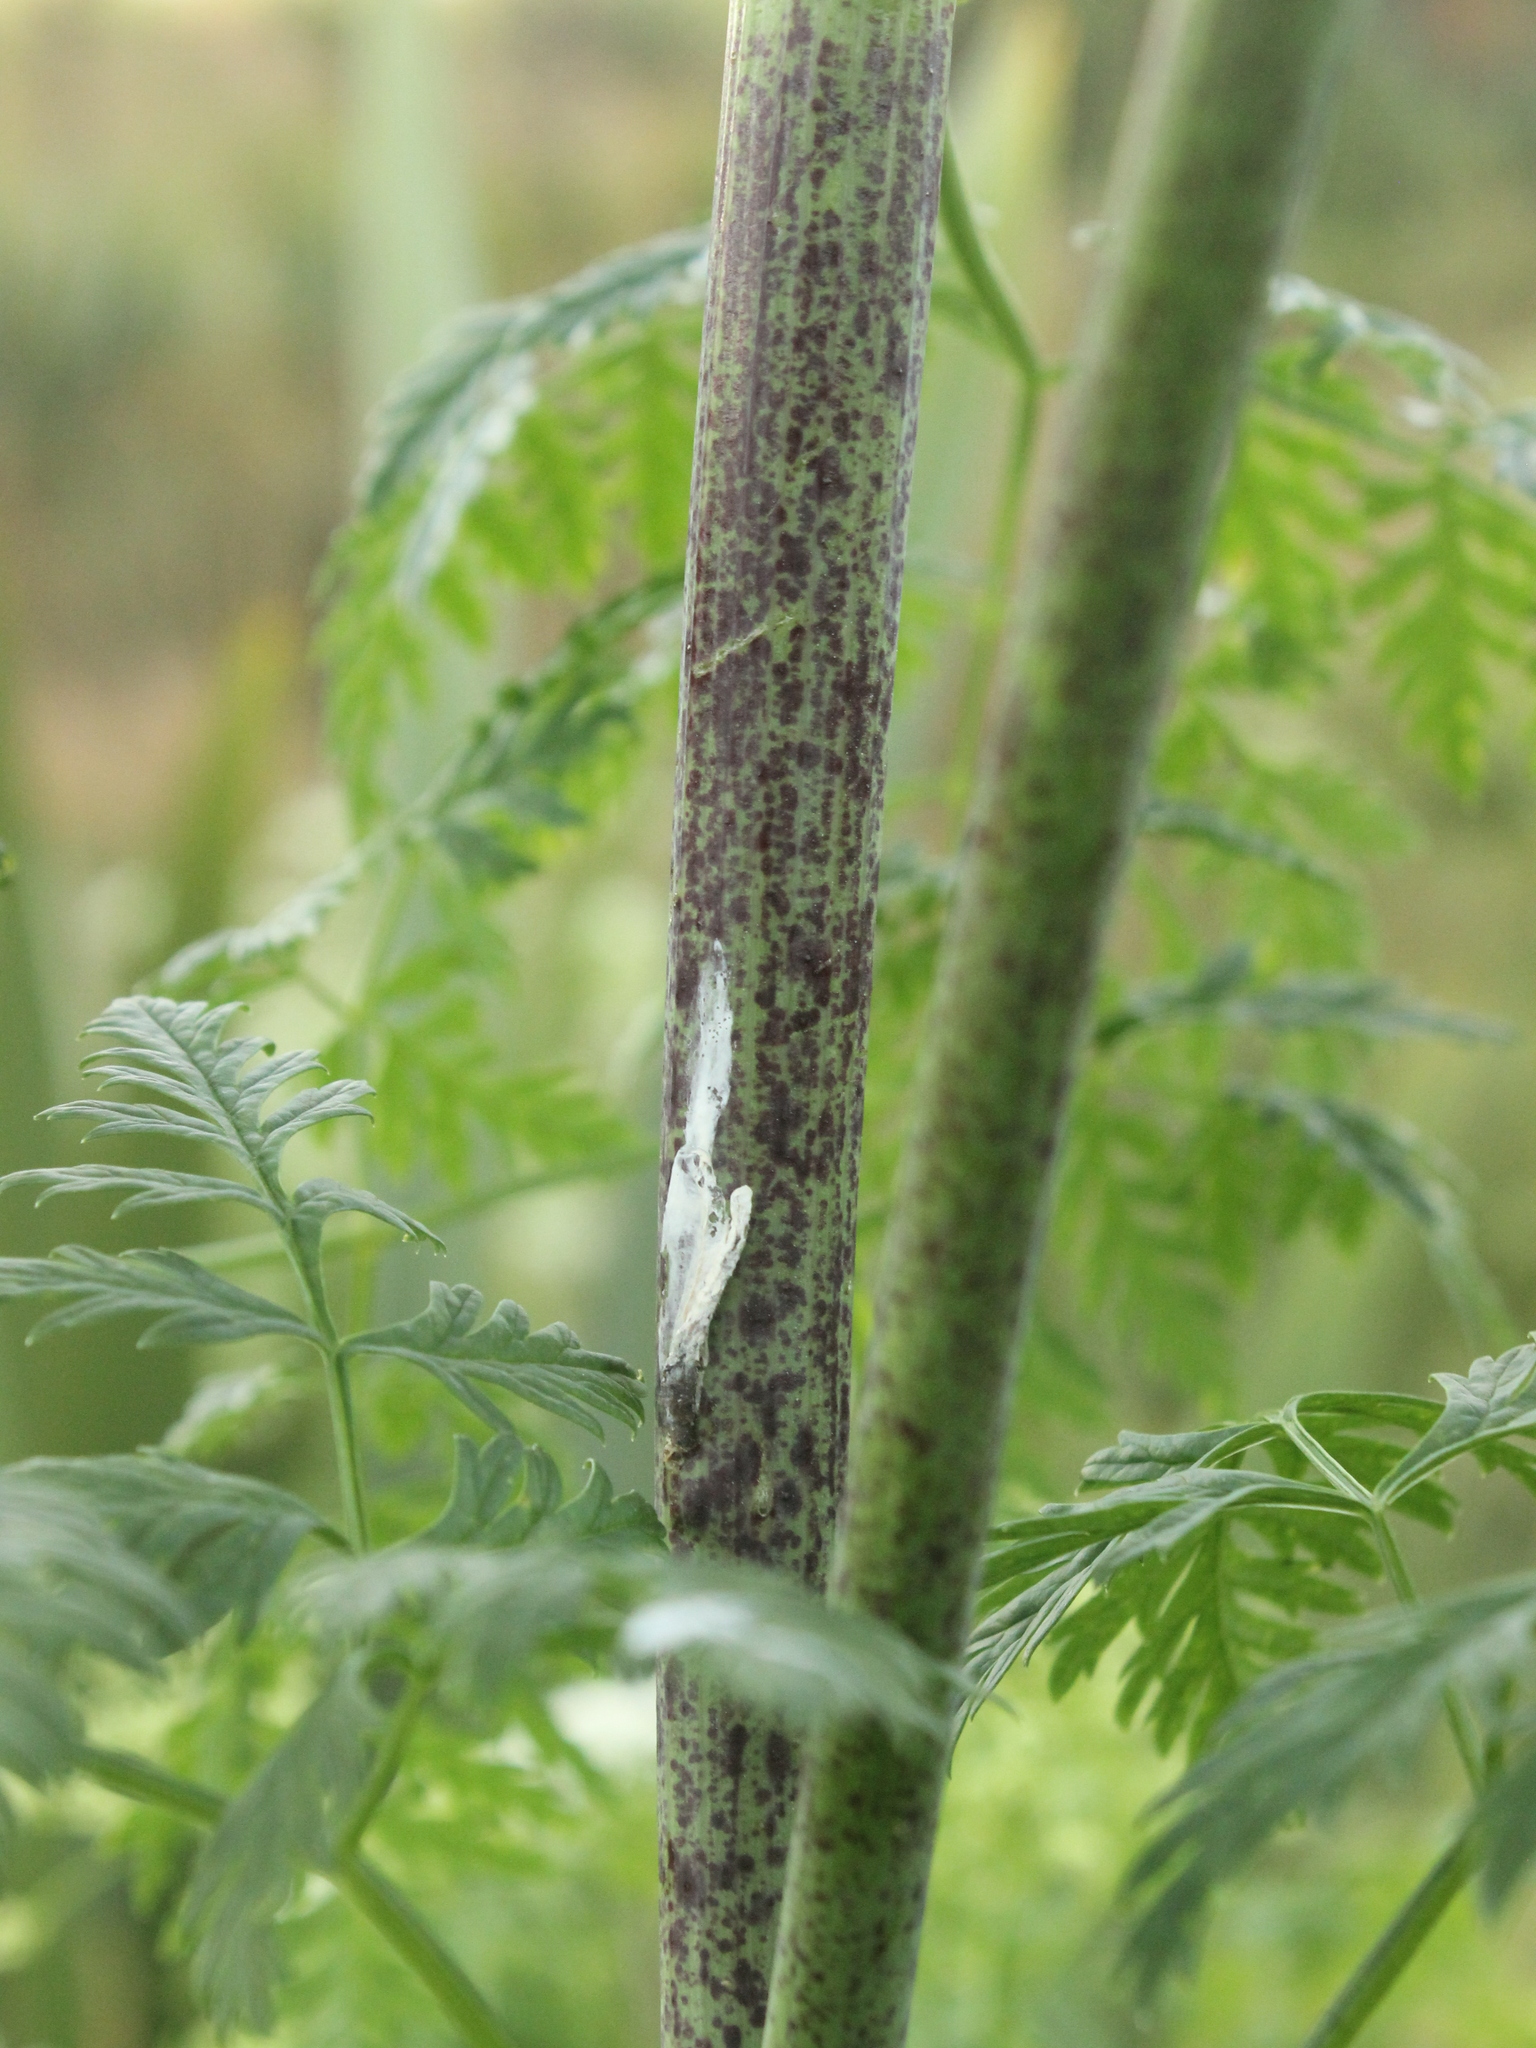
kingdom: Plantae
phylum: Tracheophyta
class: Magnoliopsida
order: Apiales
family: Apiaceae
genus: Conium
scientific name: Conium maculatum
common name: Hemlock
